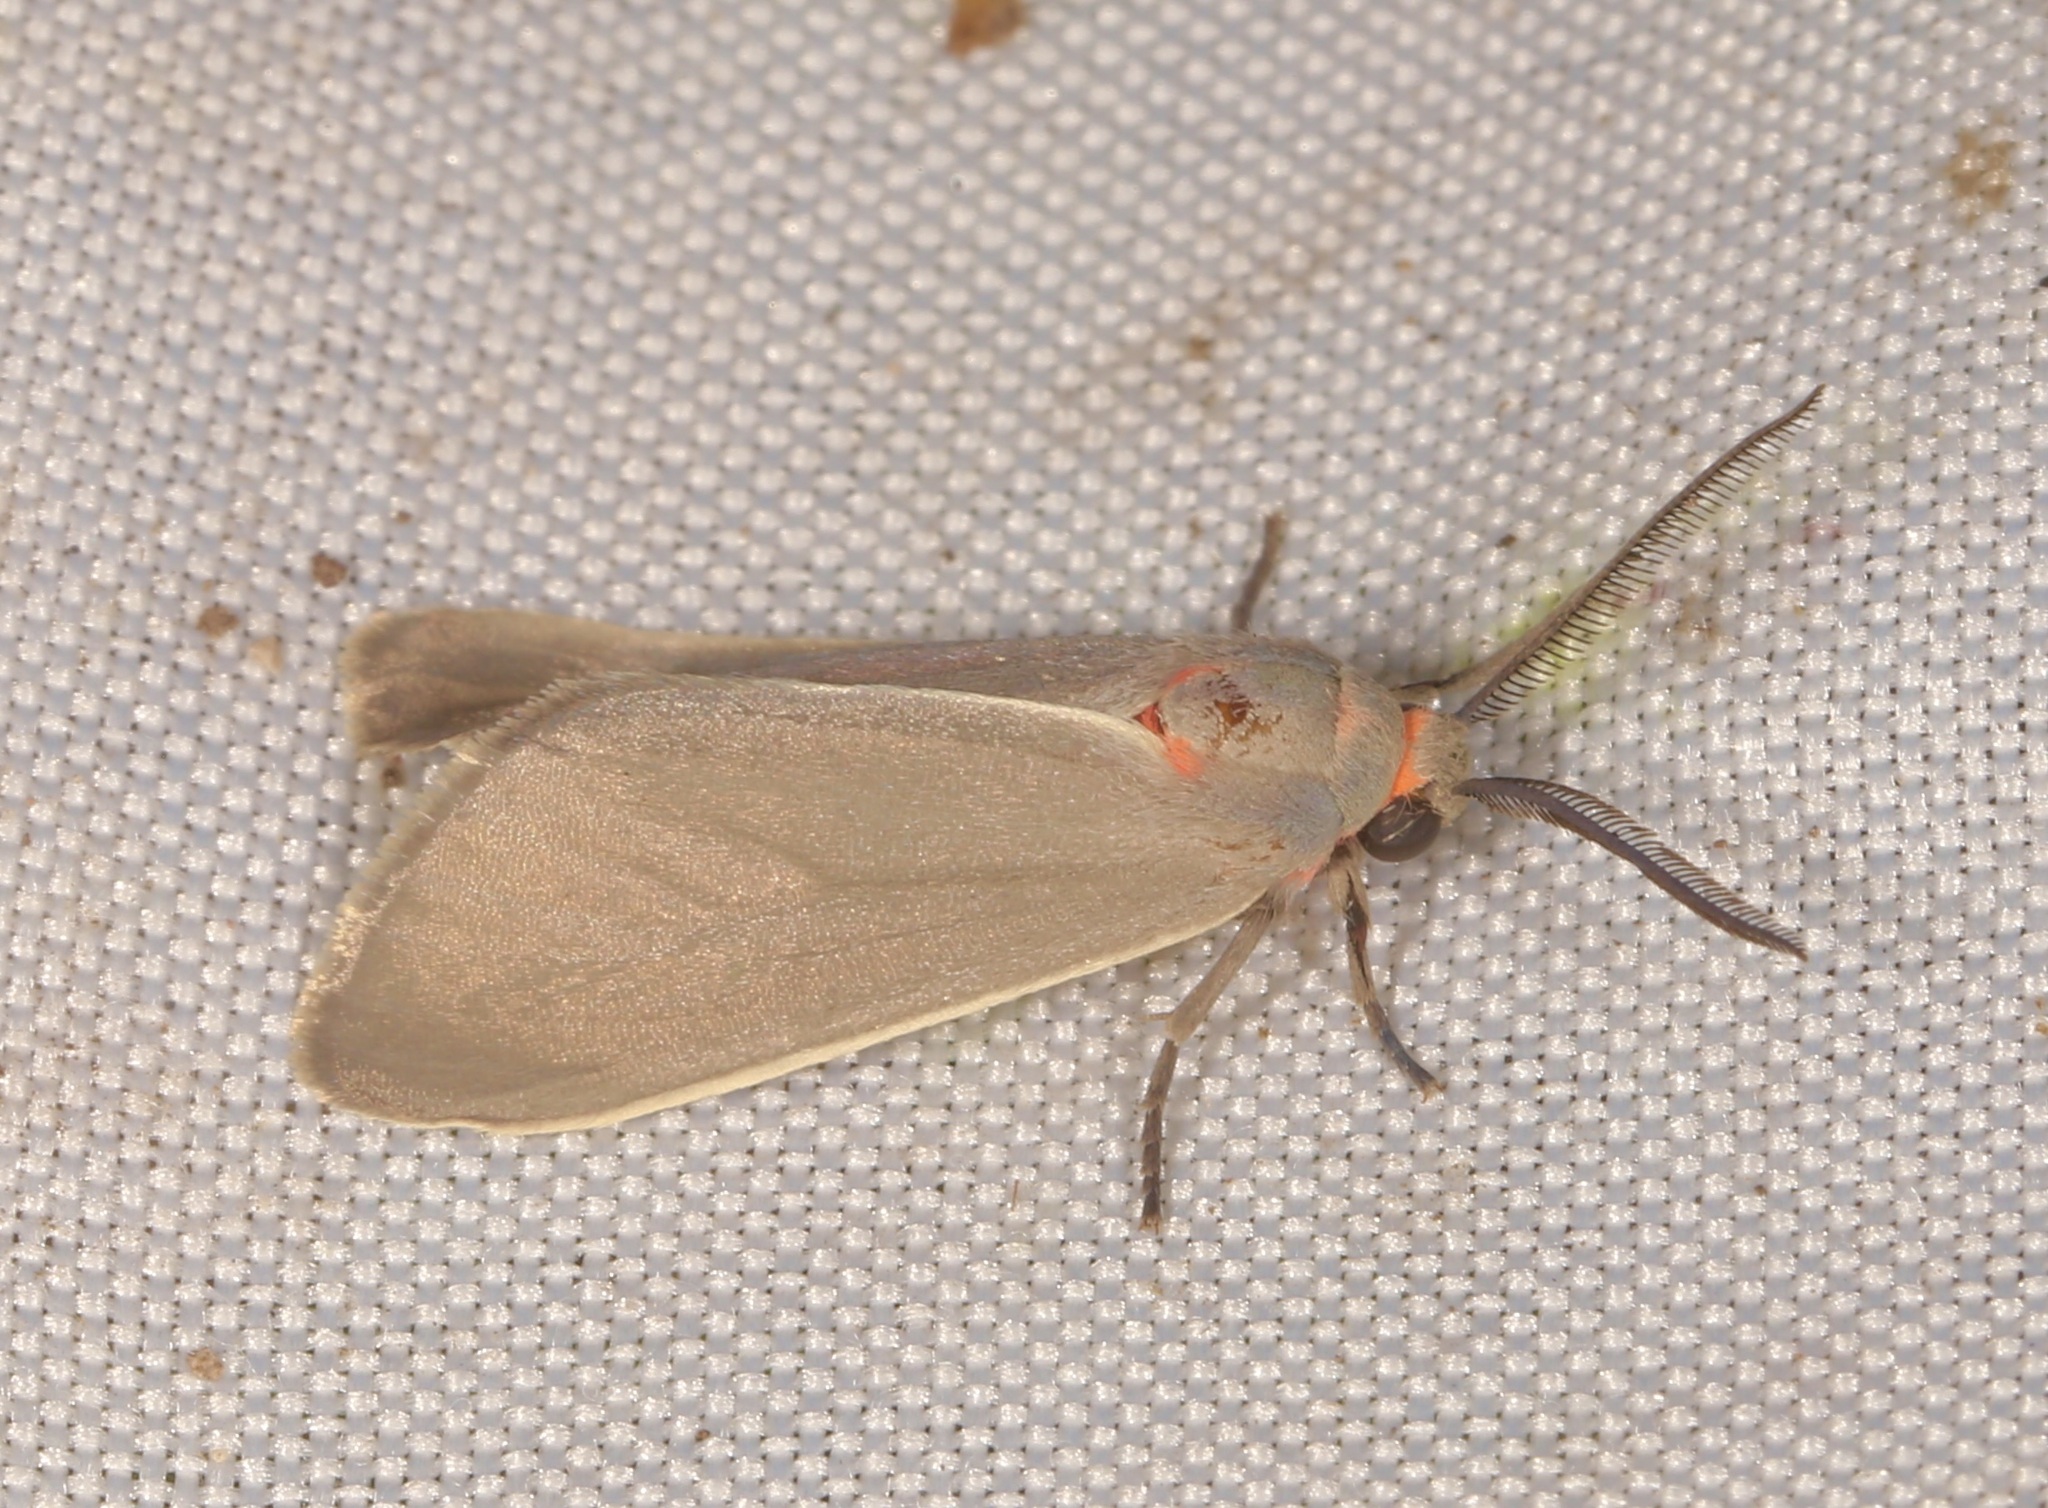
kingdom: Animalia
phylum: Arthropoda
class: Insecta
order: Lepidoptera
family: Erebidae
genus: Pygarctia
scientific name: Pygarctia murina
